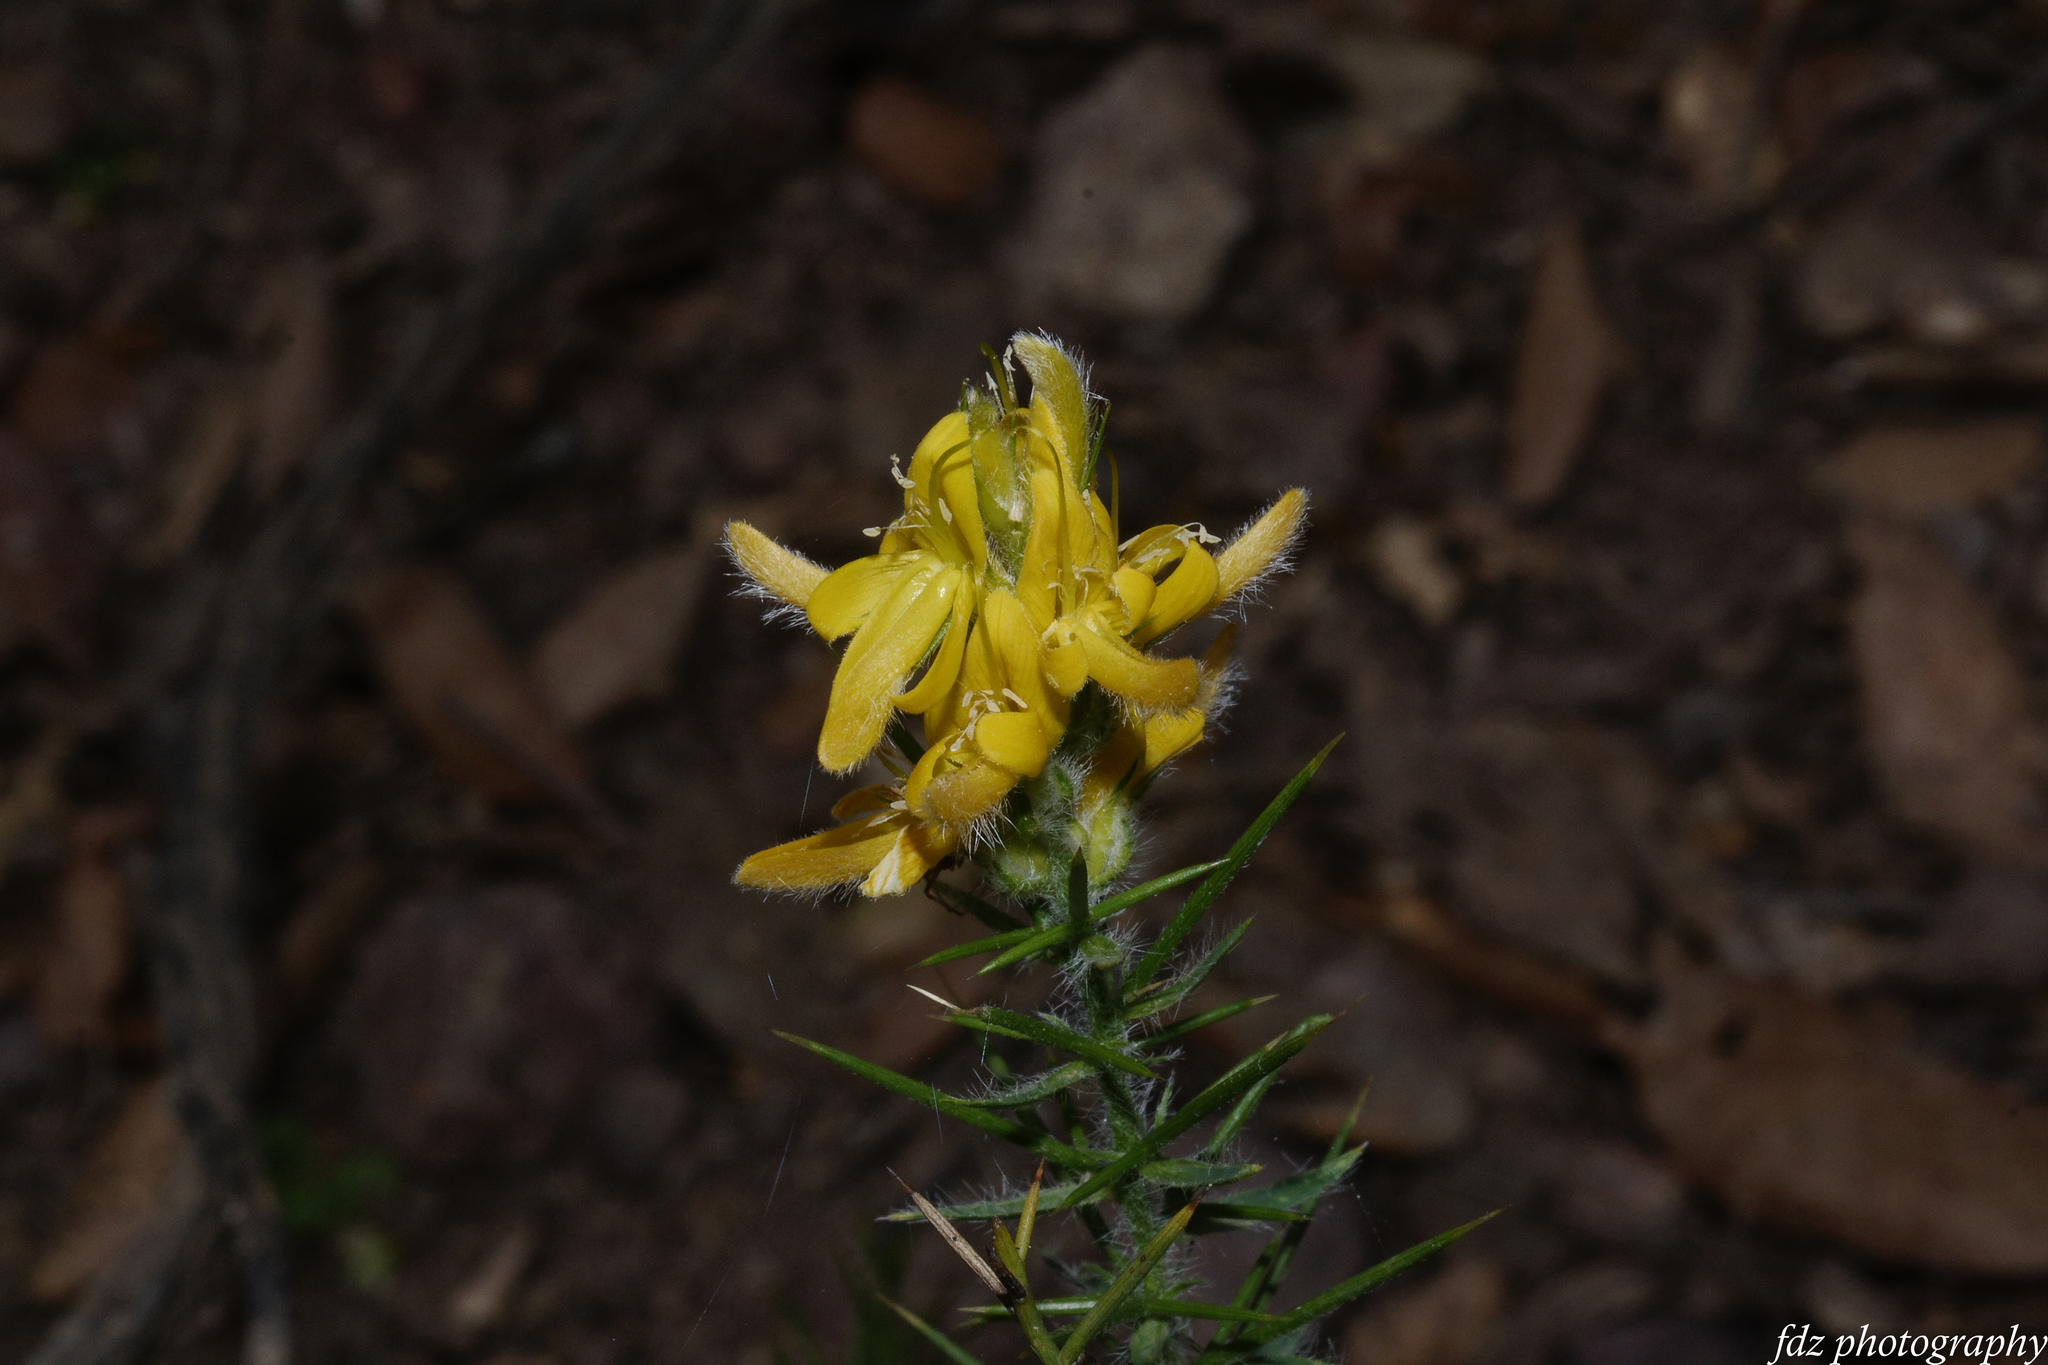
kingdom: Plantae
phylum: Tracheophyta
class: Magnoliopsida
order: Fabales
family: Fabaceae
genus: Genista
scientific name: Genista hirsuta
